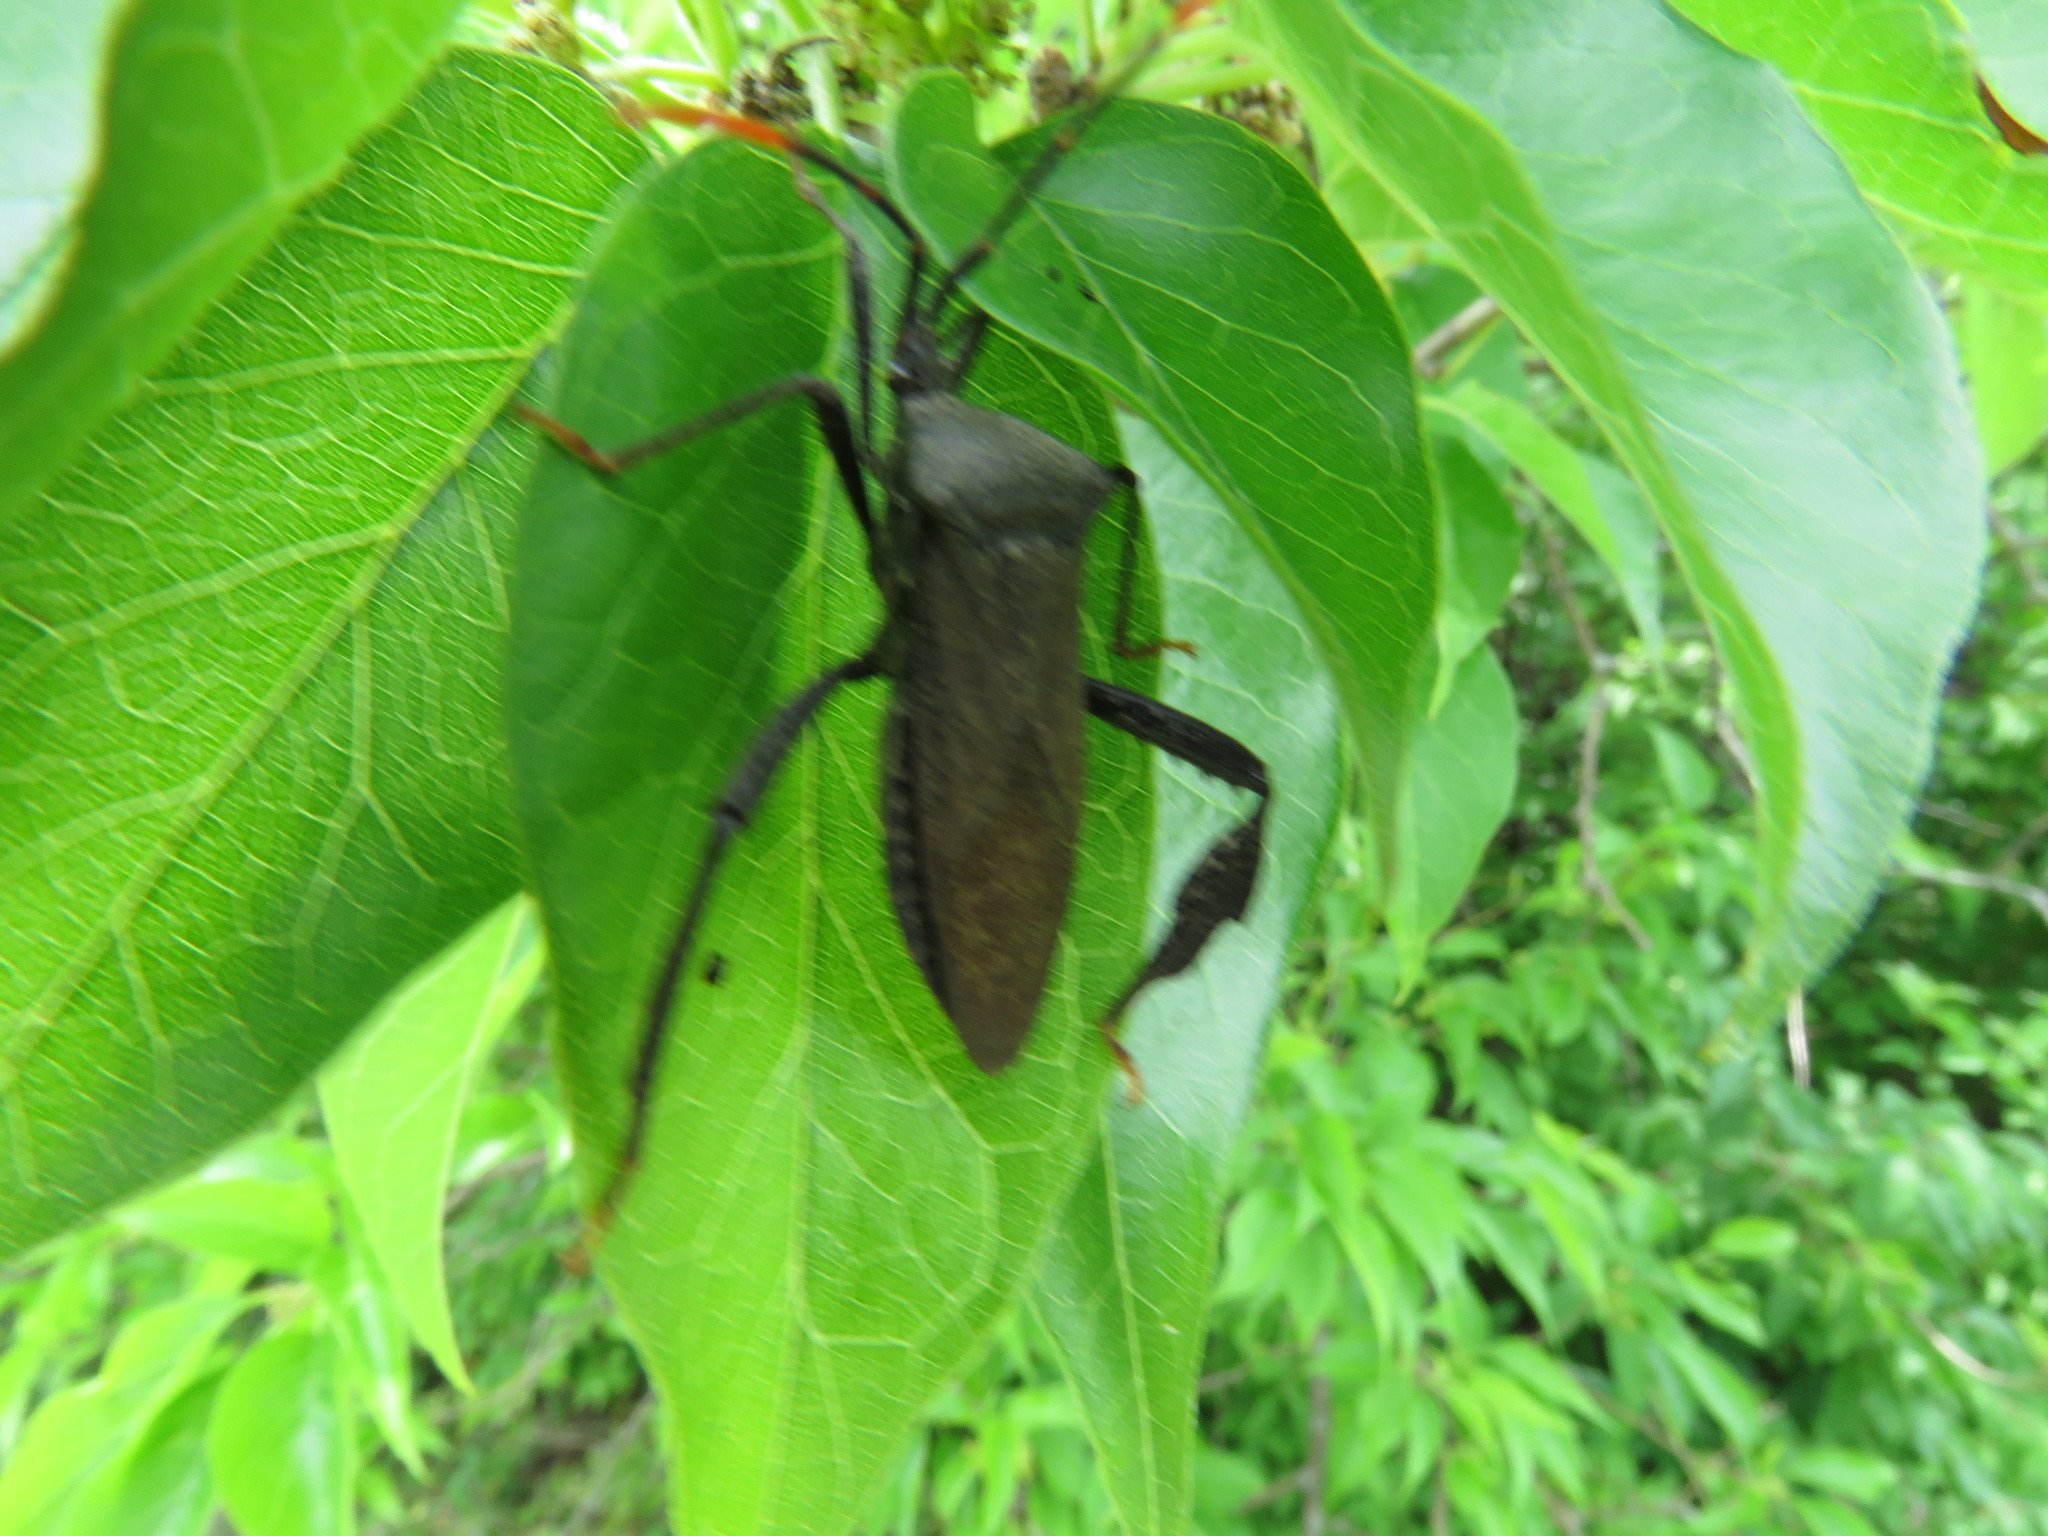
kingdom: Animalia
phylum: Arthropoda
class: Insecta
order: Hemiptera
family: Coreidae
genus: Acanthocephala
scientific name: Acanthocephala terminalis
